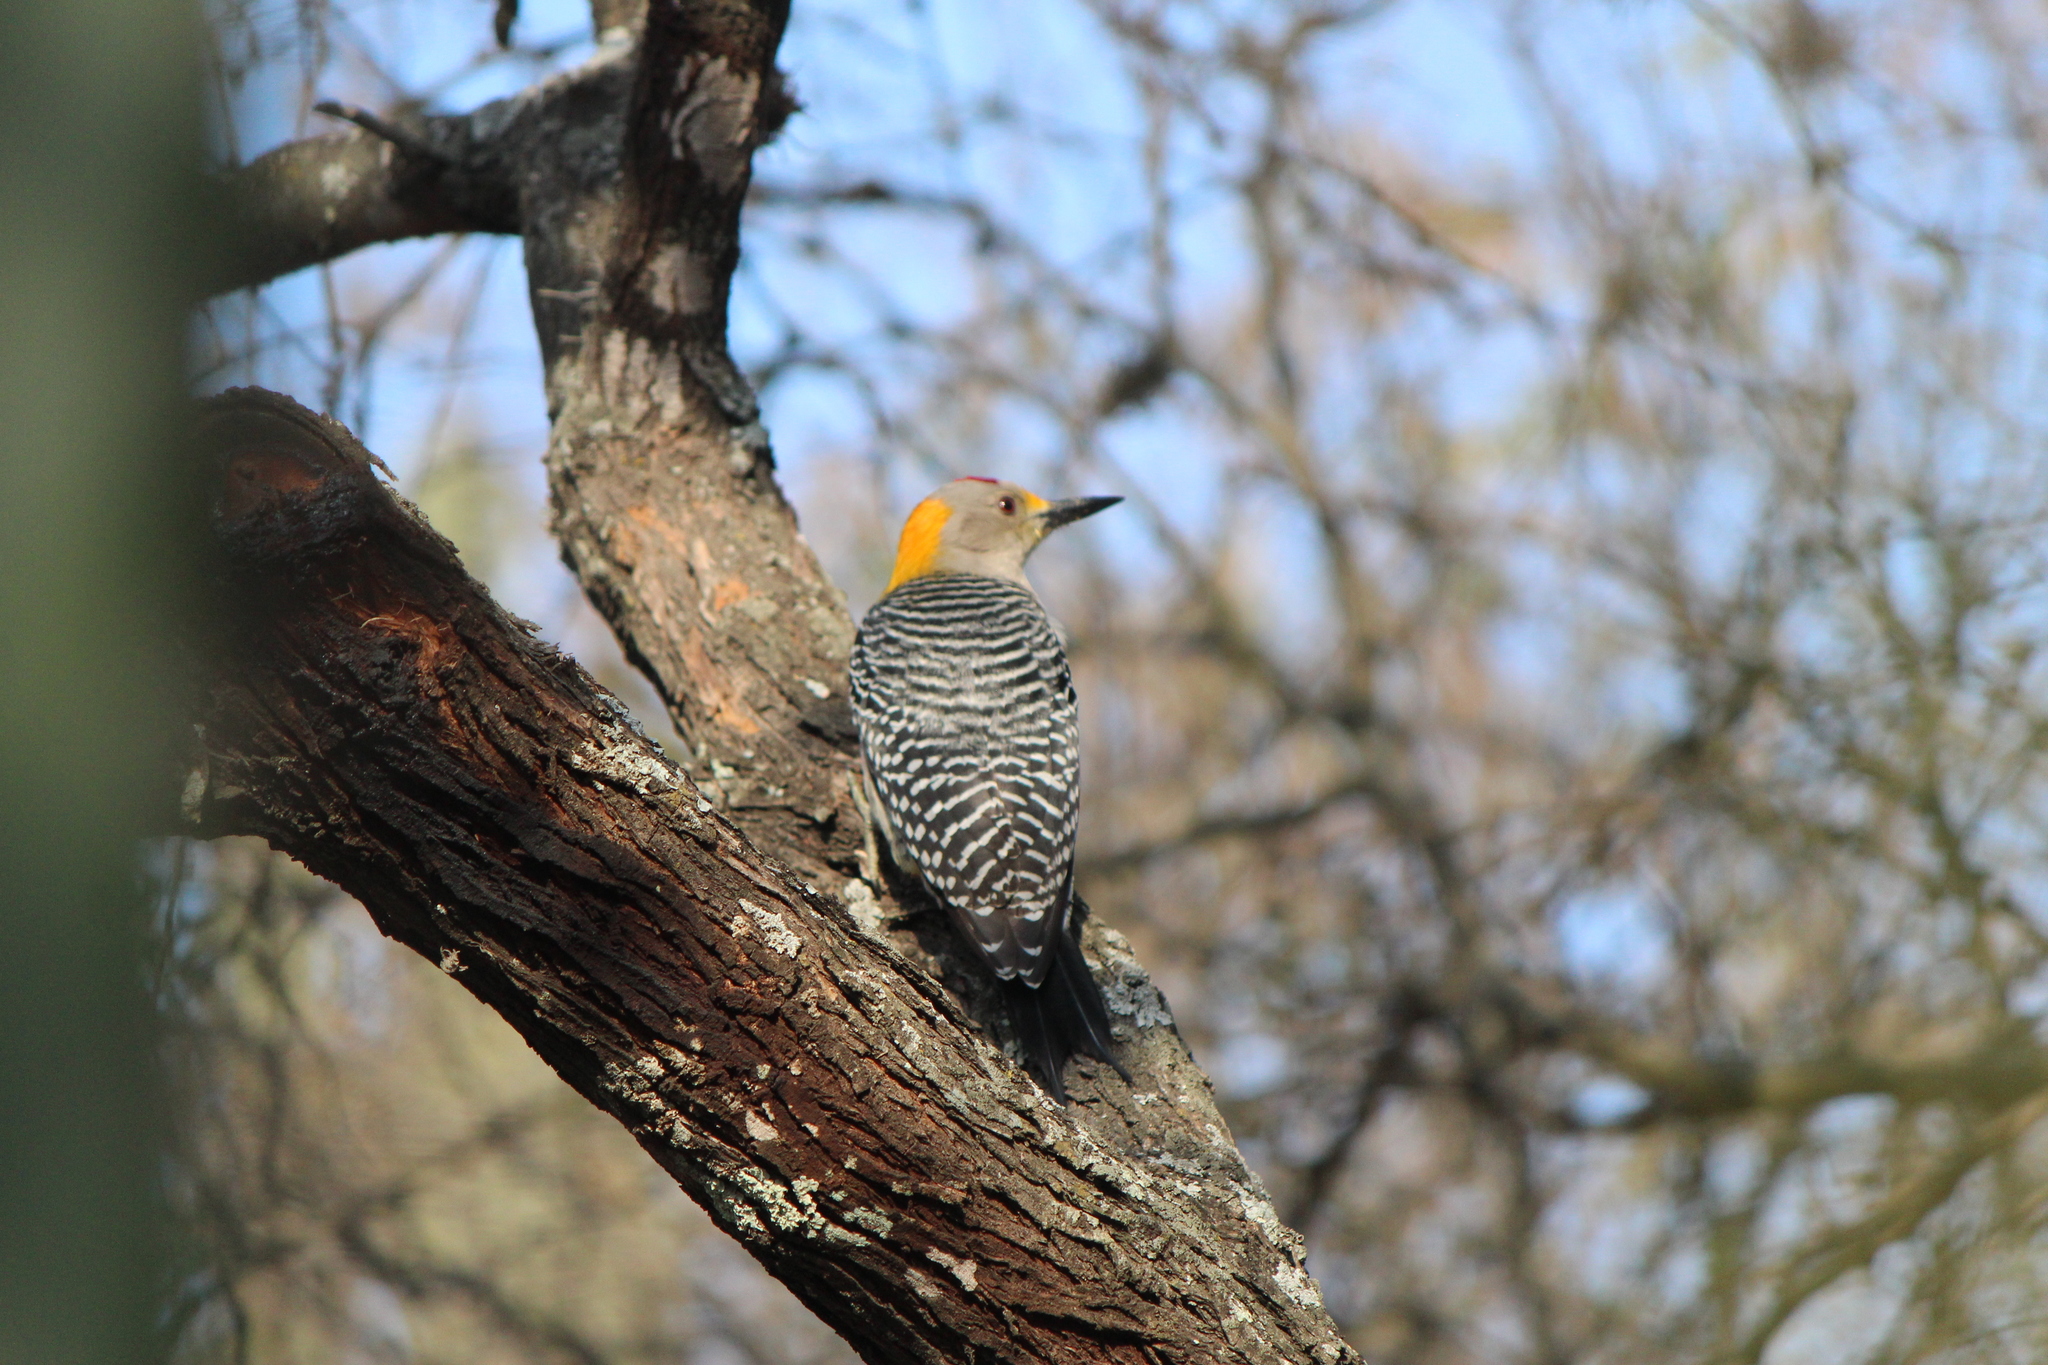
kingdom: Animalia
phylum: Chordata
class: Aves
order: Piciformes
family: Picidae
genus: Melanerpes
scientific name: Melanerpes aurifrons
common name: Golden-fronted woodpecker
